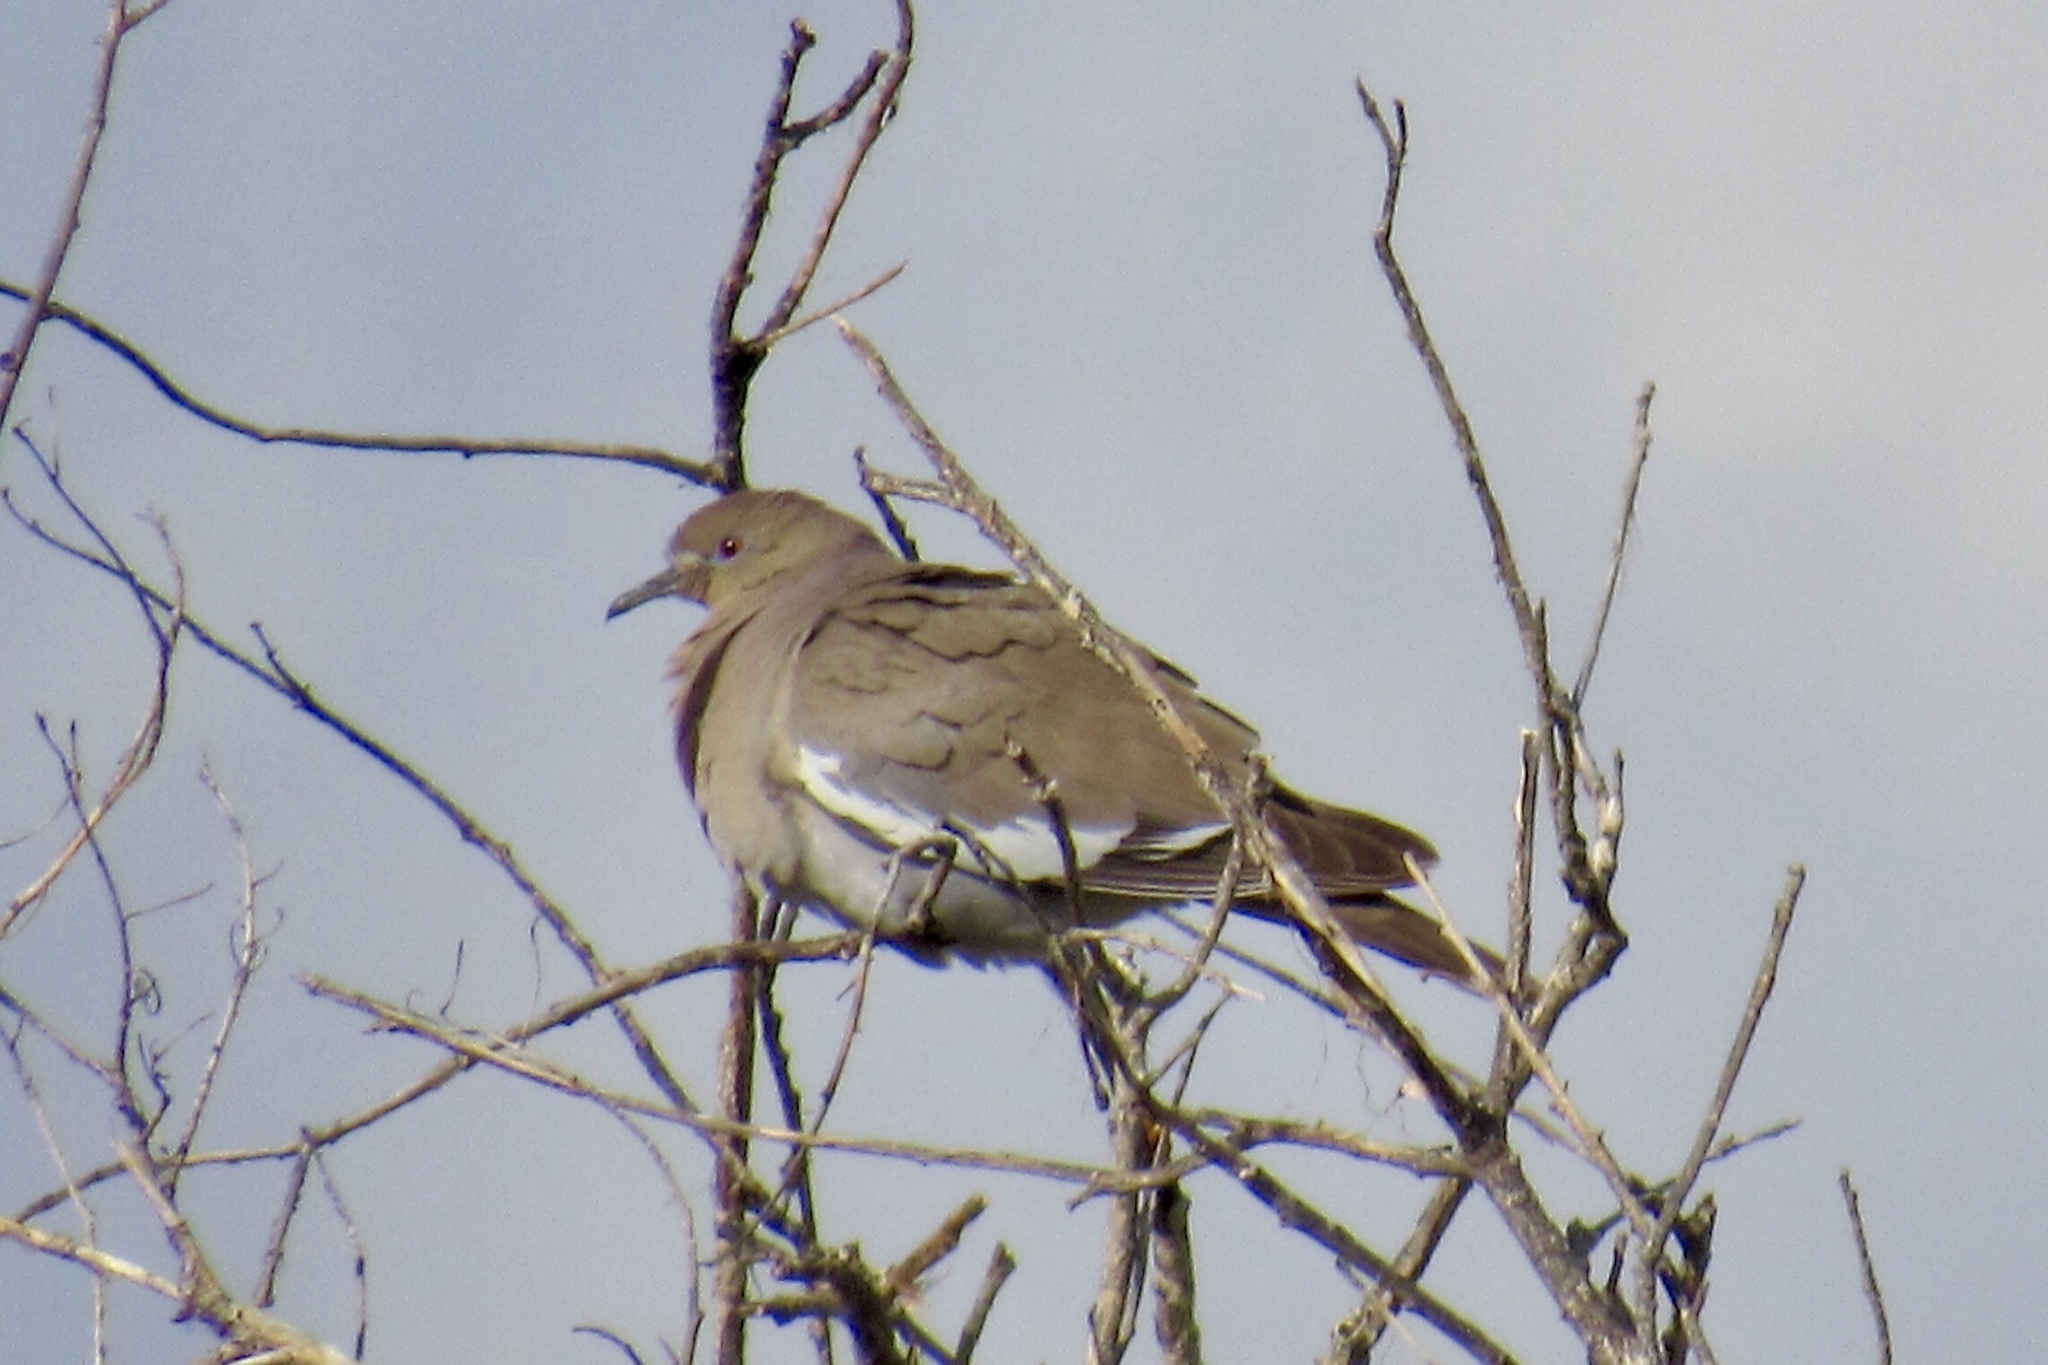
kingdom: Animalia
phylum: Chordata
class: Aves
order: Columbiformes
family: Columbidae
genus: Zenaida
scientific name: Zenaida asiatica
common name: White-winged dove
